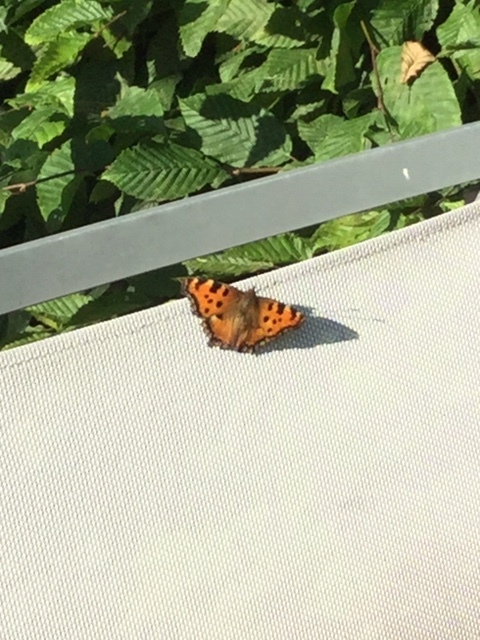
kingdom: Animalia
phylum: Arthropoda
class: Insecta
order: Lepidoptera
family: Nymphalidae
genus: Nymphalis
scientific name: Nymphalis polychloros
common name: Large tortoiseshell
